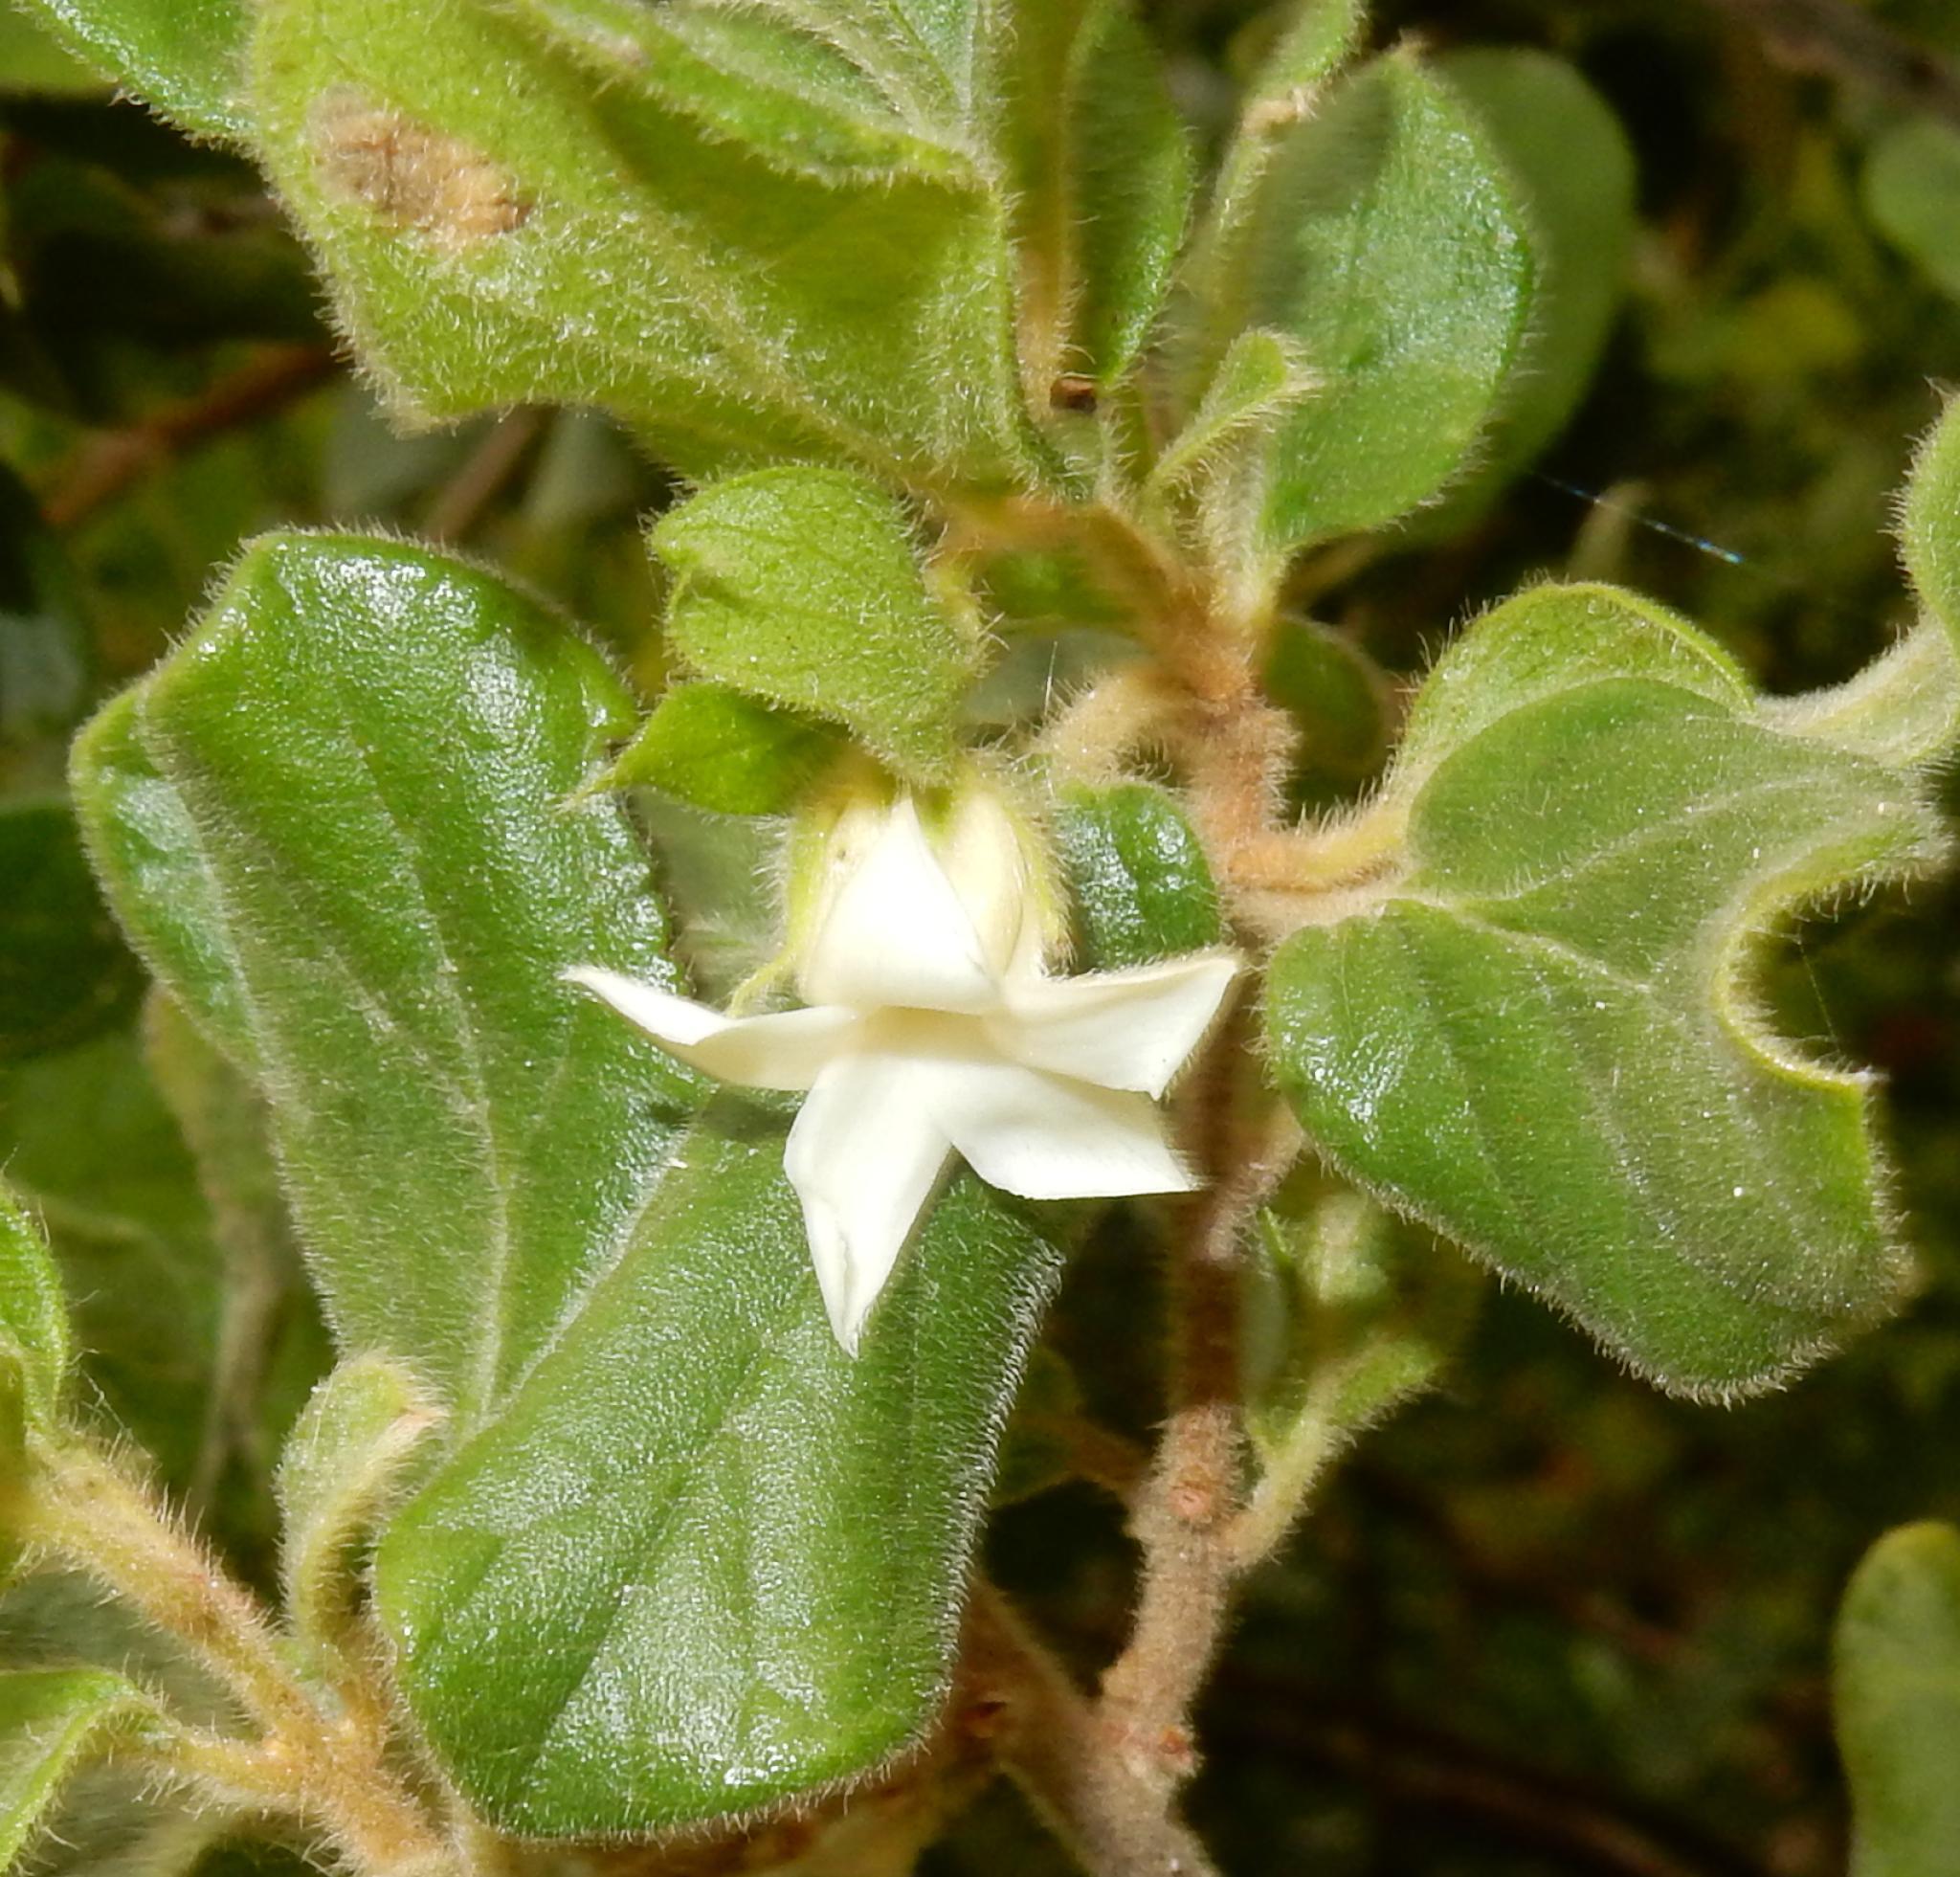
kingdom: Plantae
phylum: Tracheophyta
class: Magnoliopsida
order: Ericales
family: Ebenaceae
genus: Diospyros
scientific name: Diospyros villosa
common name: Hairy star-apple
